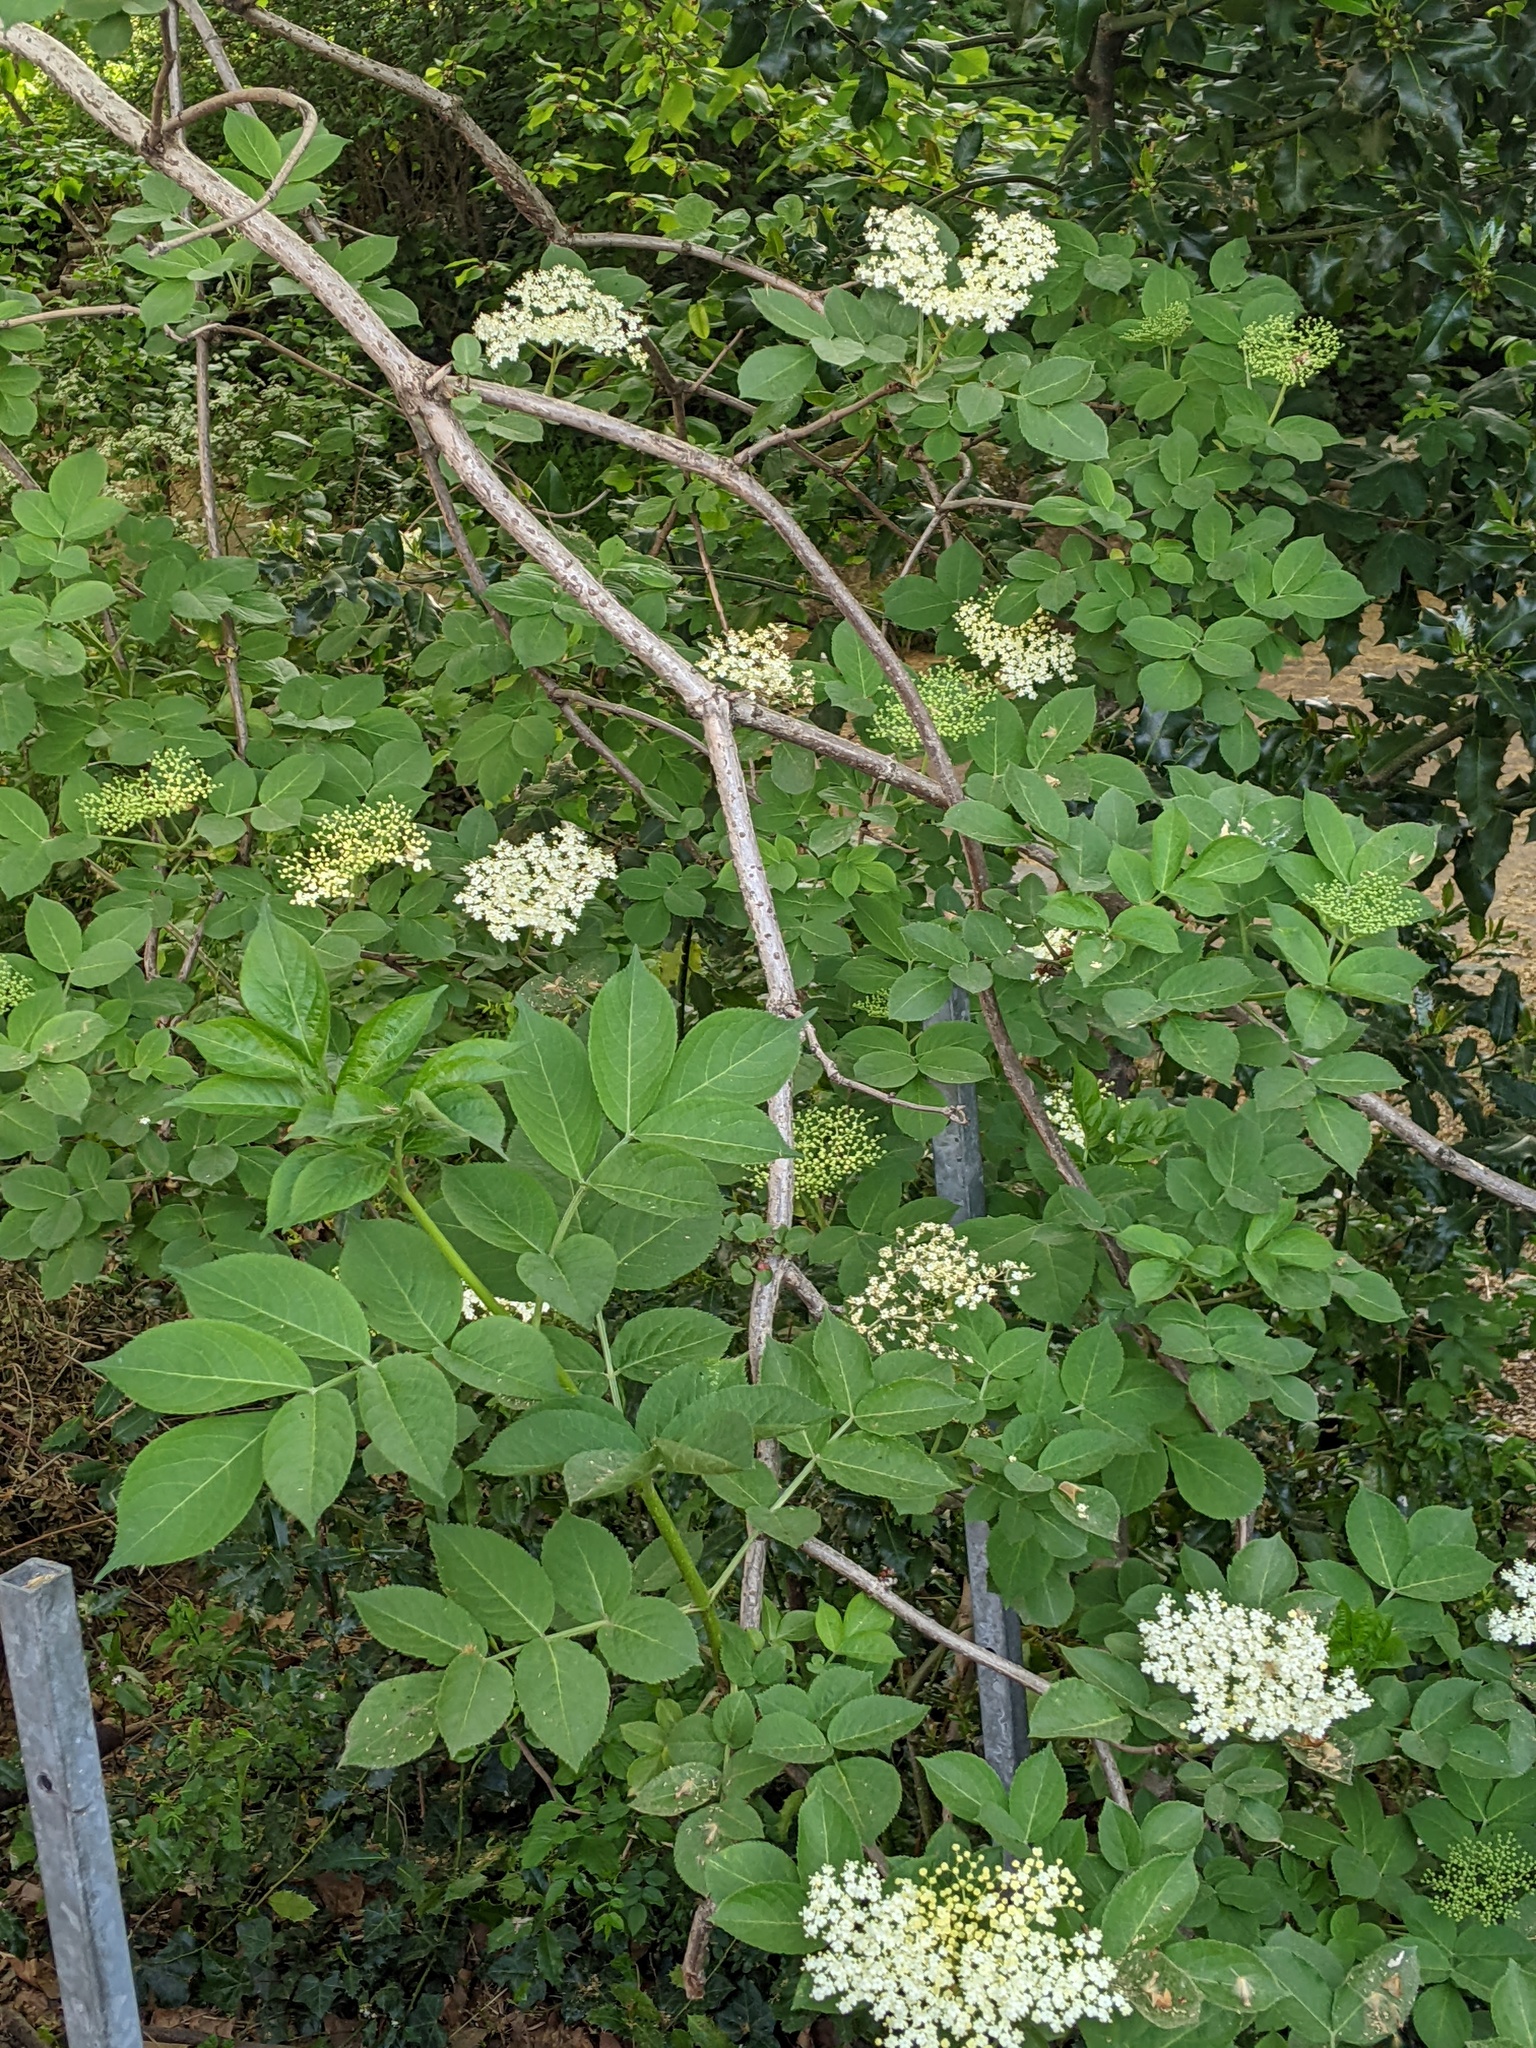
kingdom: Plantae
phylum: Tracheophyta
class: Magnoliopsida
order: Dipsacales
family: Viburnaceae
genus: Sambucus
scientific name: Sambucus nigra
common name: Elder
